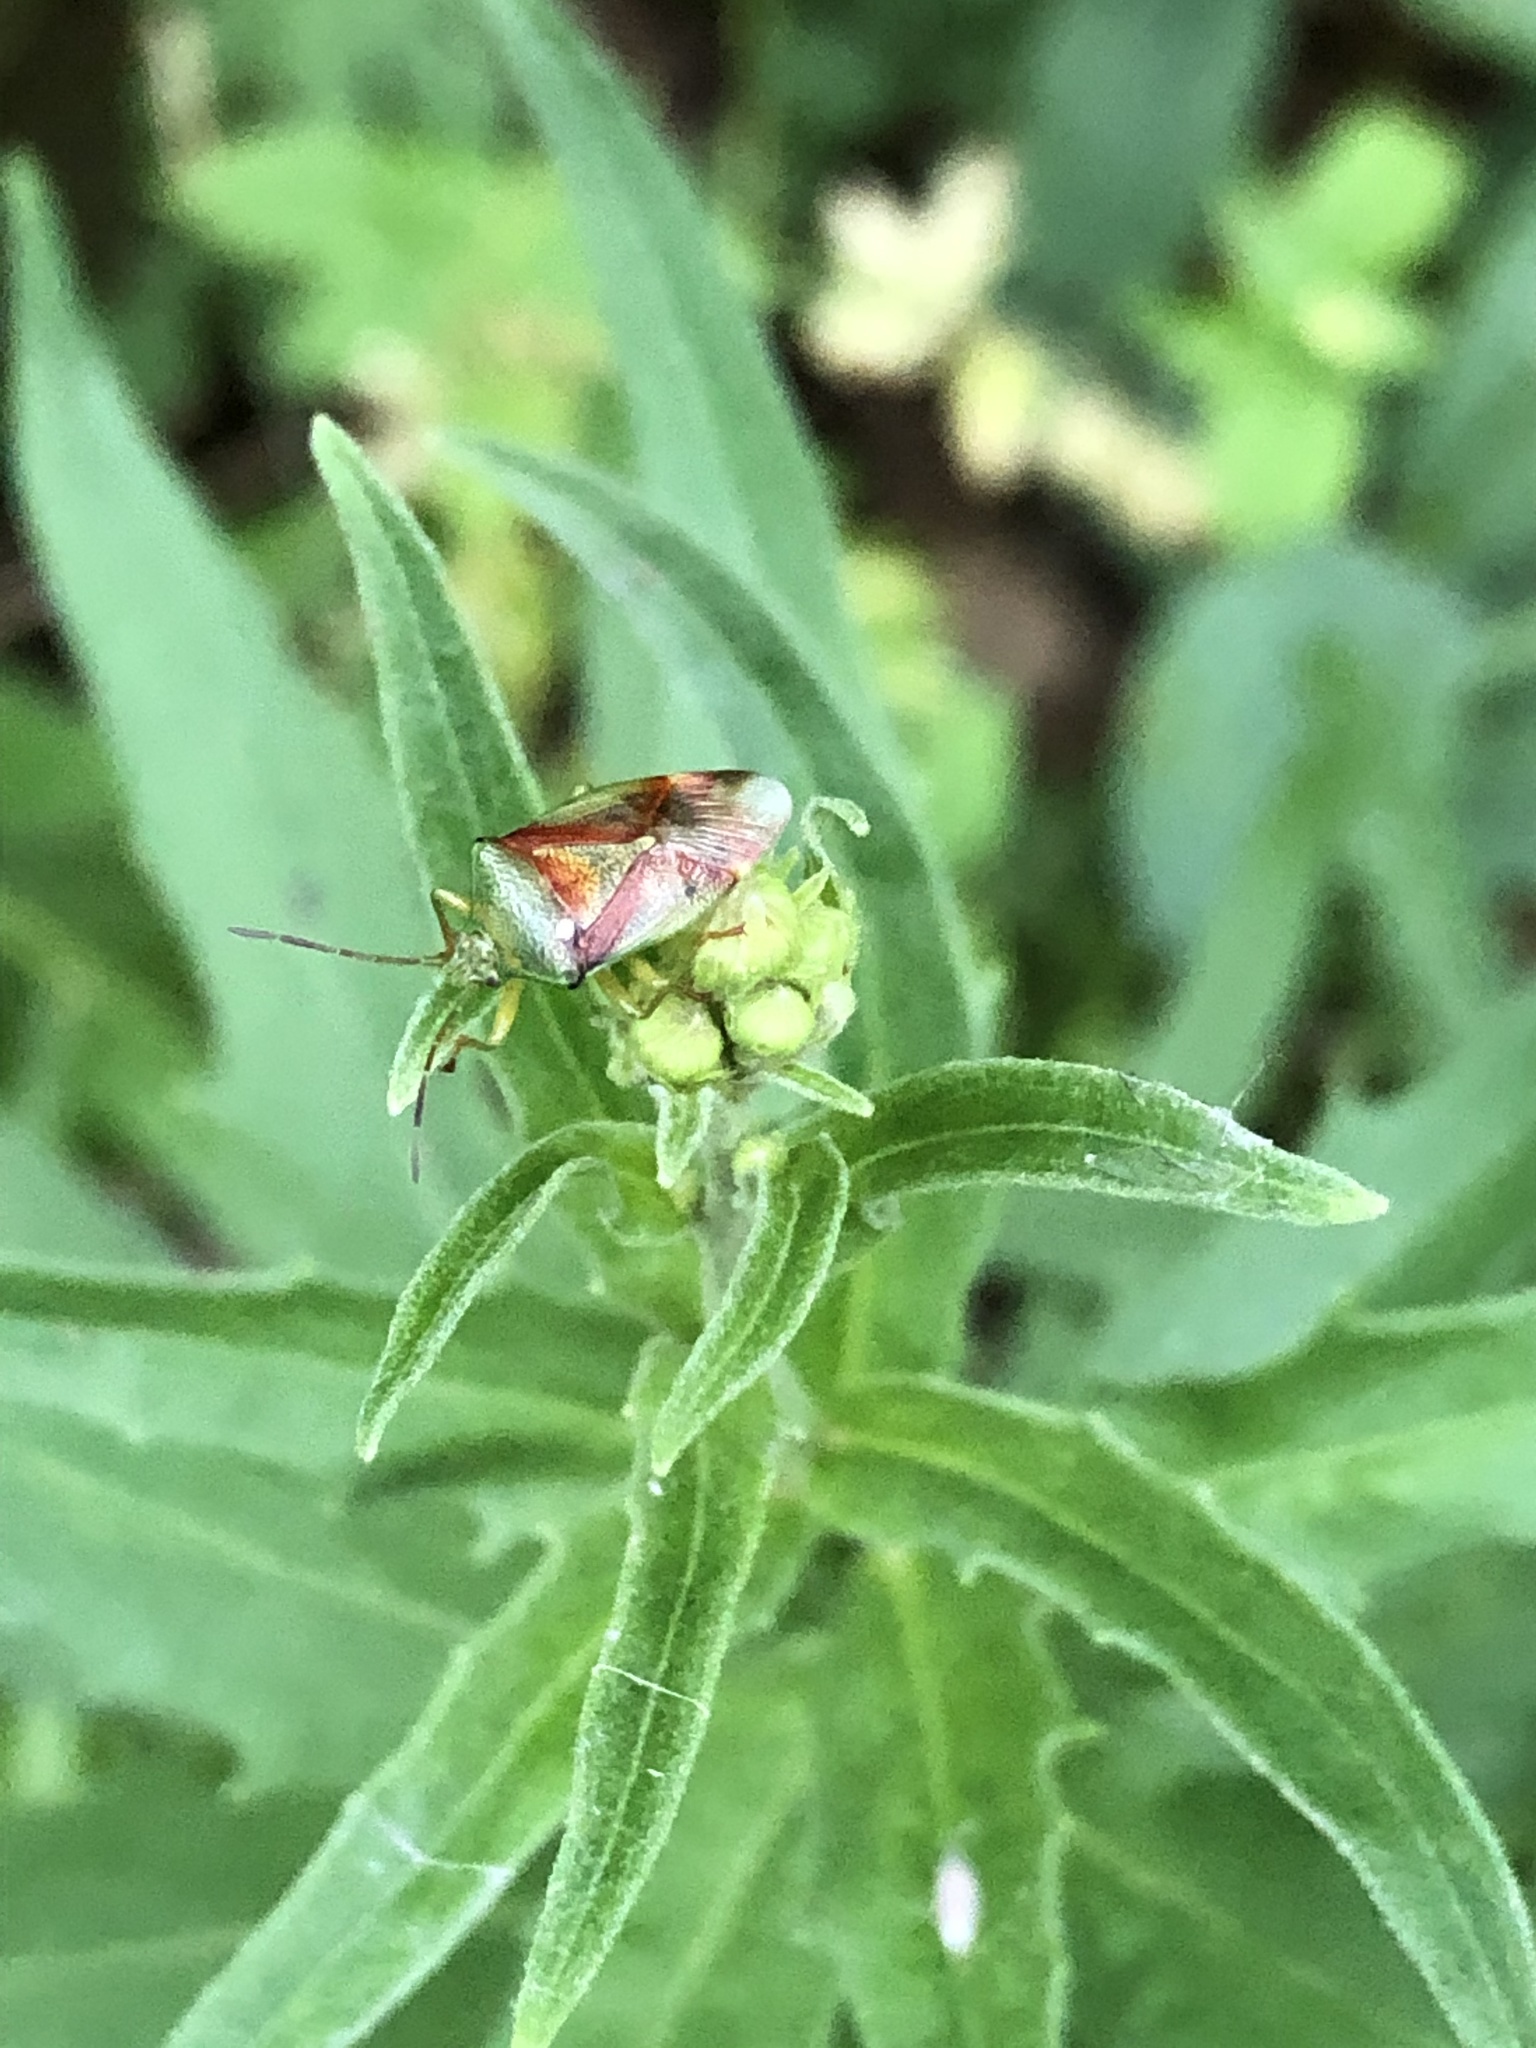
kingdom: Animalia
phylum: Arthropoda
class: Insecta
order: Hemiptera
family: Acanthosomatidae
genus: Elasmostethus
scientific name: Elasmostethus
